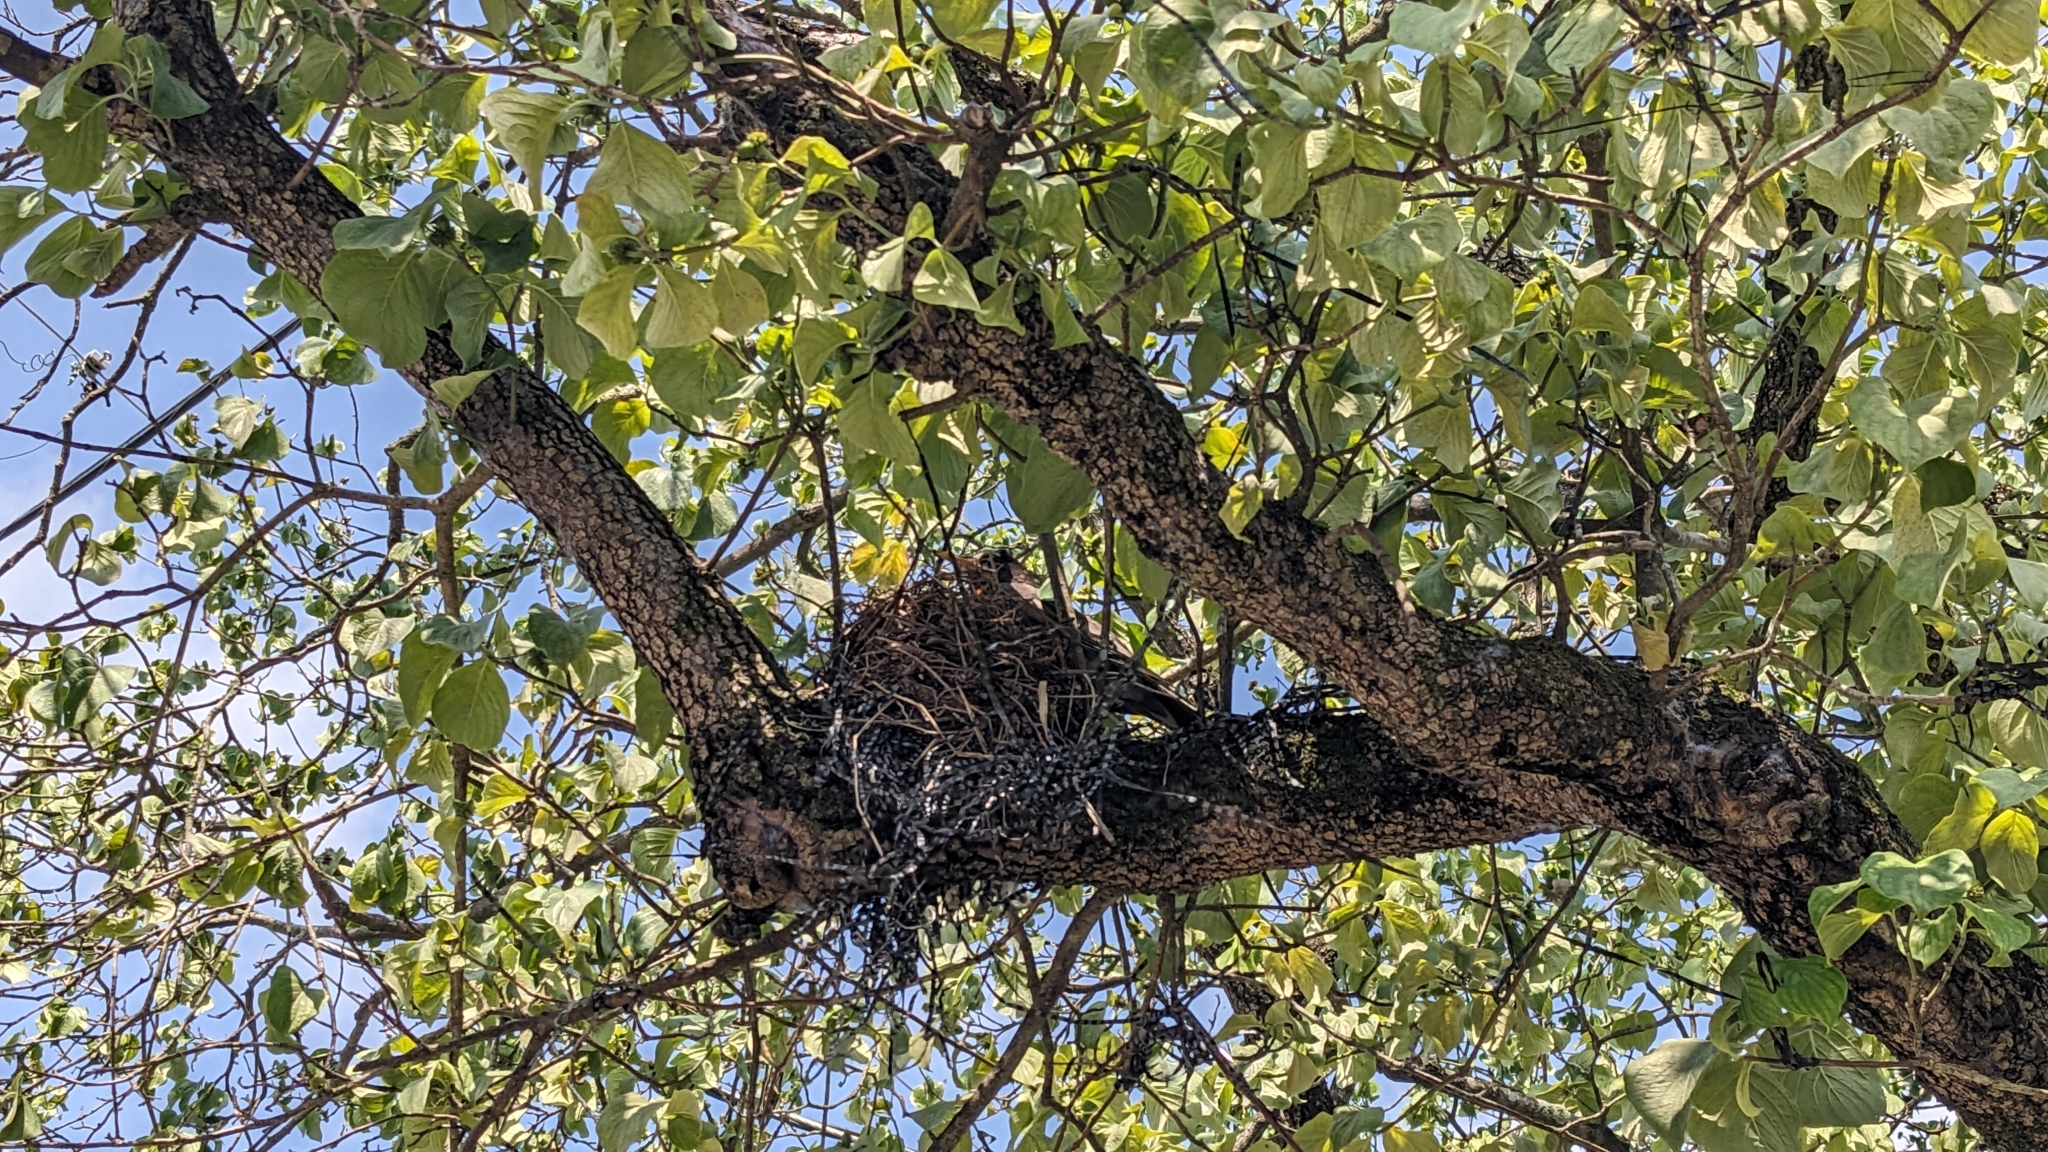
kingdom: Animalia
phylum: Chordata
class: Aves
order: Passeriformes
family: Turdidae
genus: Turdus
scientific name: Turdus migratorius
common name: American robin
